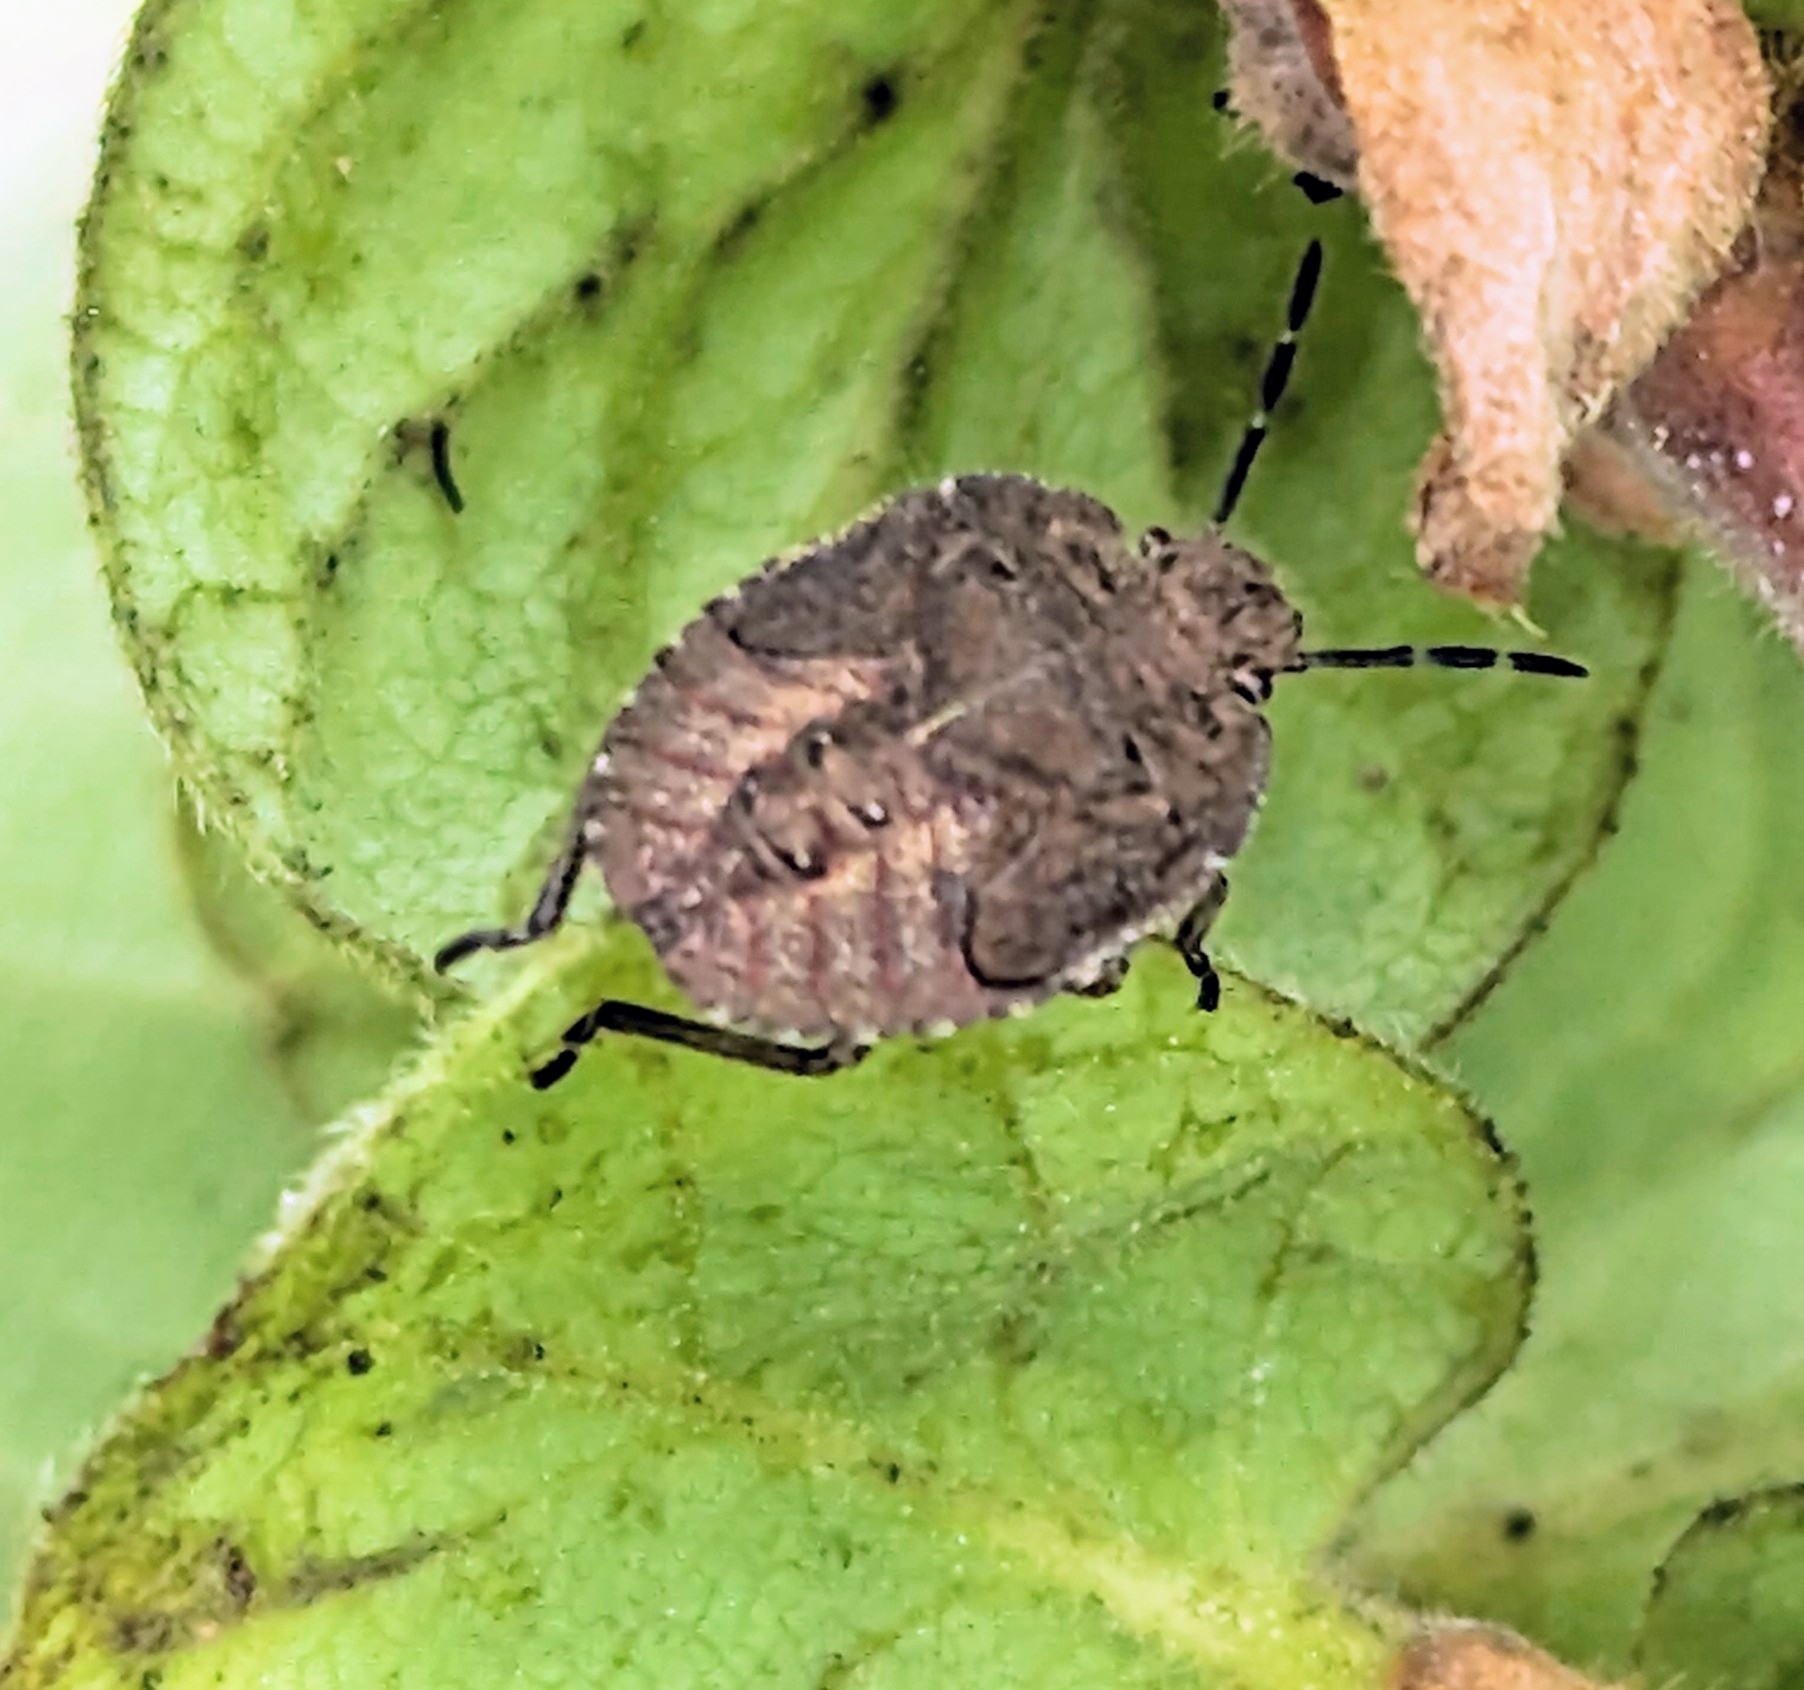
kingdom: Animalia
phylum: Arthropoda
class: Insecta
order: Hemiptera
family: Pentatomidae
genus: Dolycoris
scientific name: Dolycoris baccarum
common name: Sloe bug
